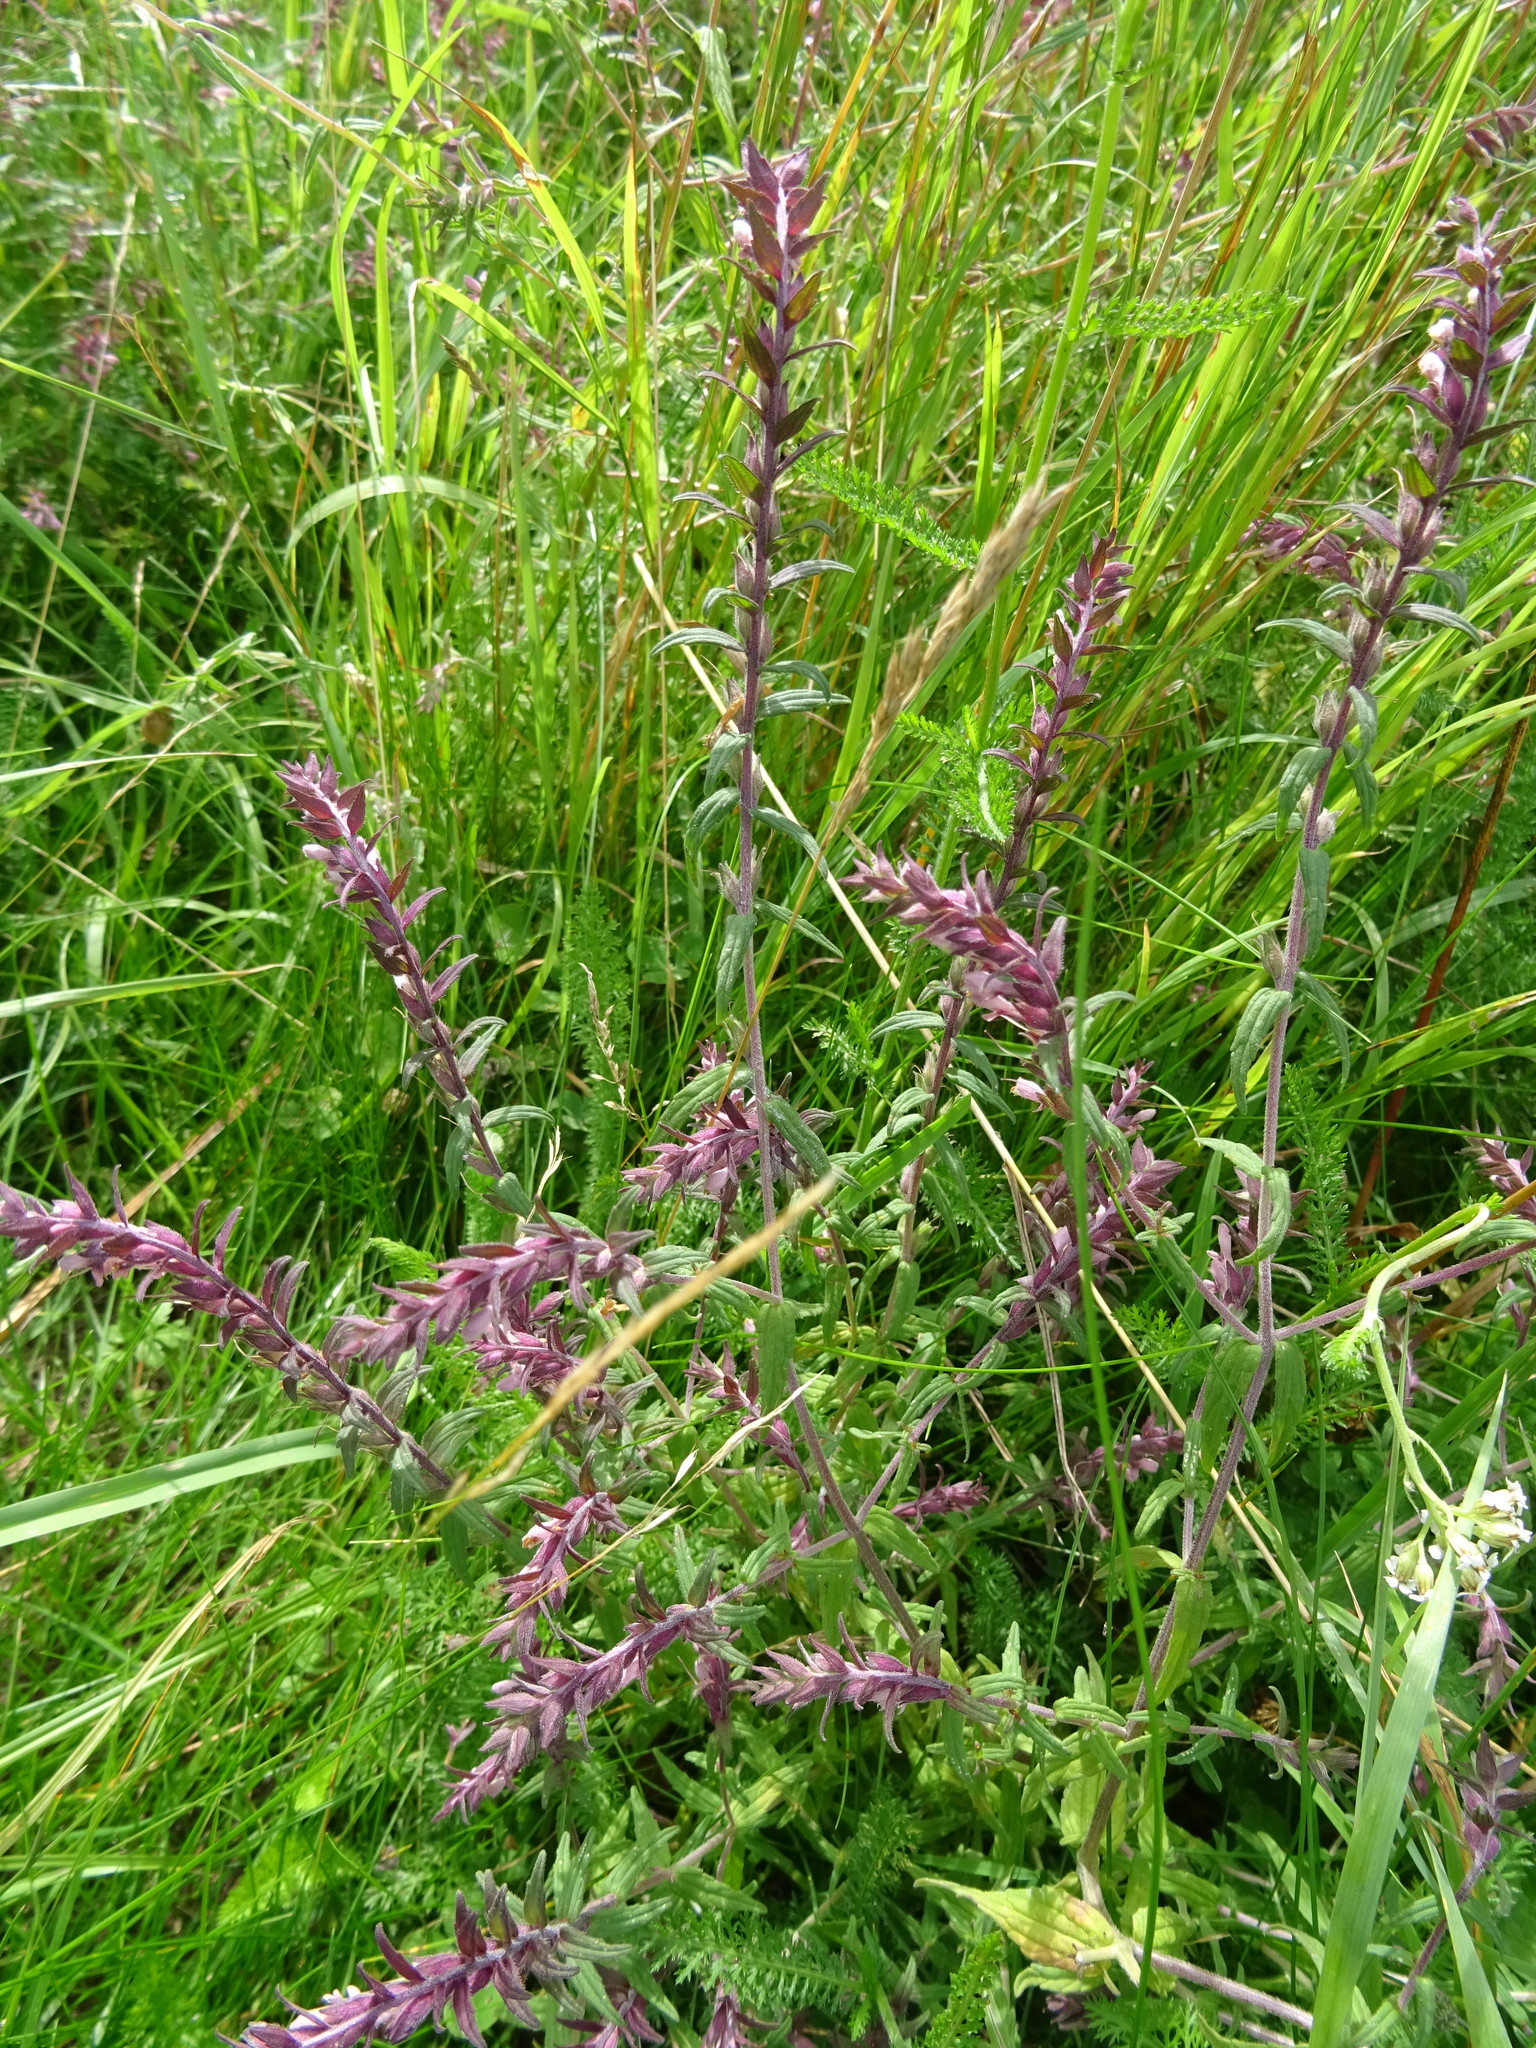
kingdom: Plantae
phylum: Tracheophyta
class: Magnoliopsida
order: Lamiales
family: Orobanchaceae
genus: Odontites
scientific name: Odontites vulgaris
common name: Broomrape
